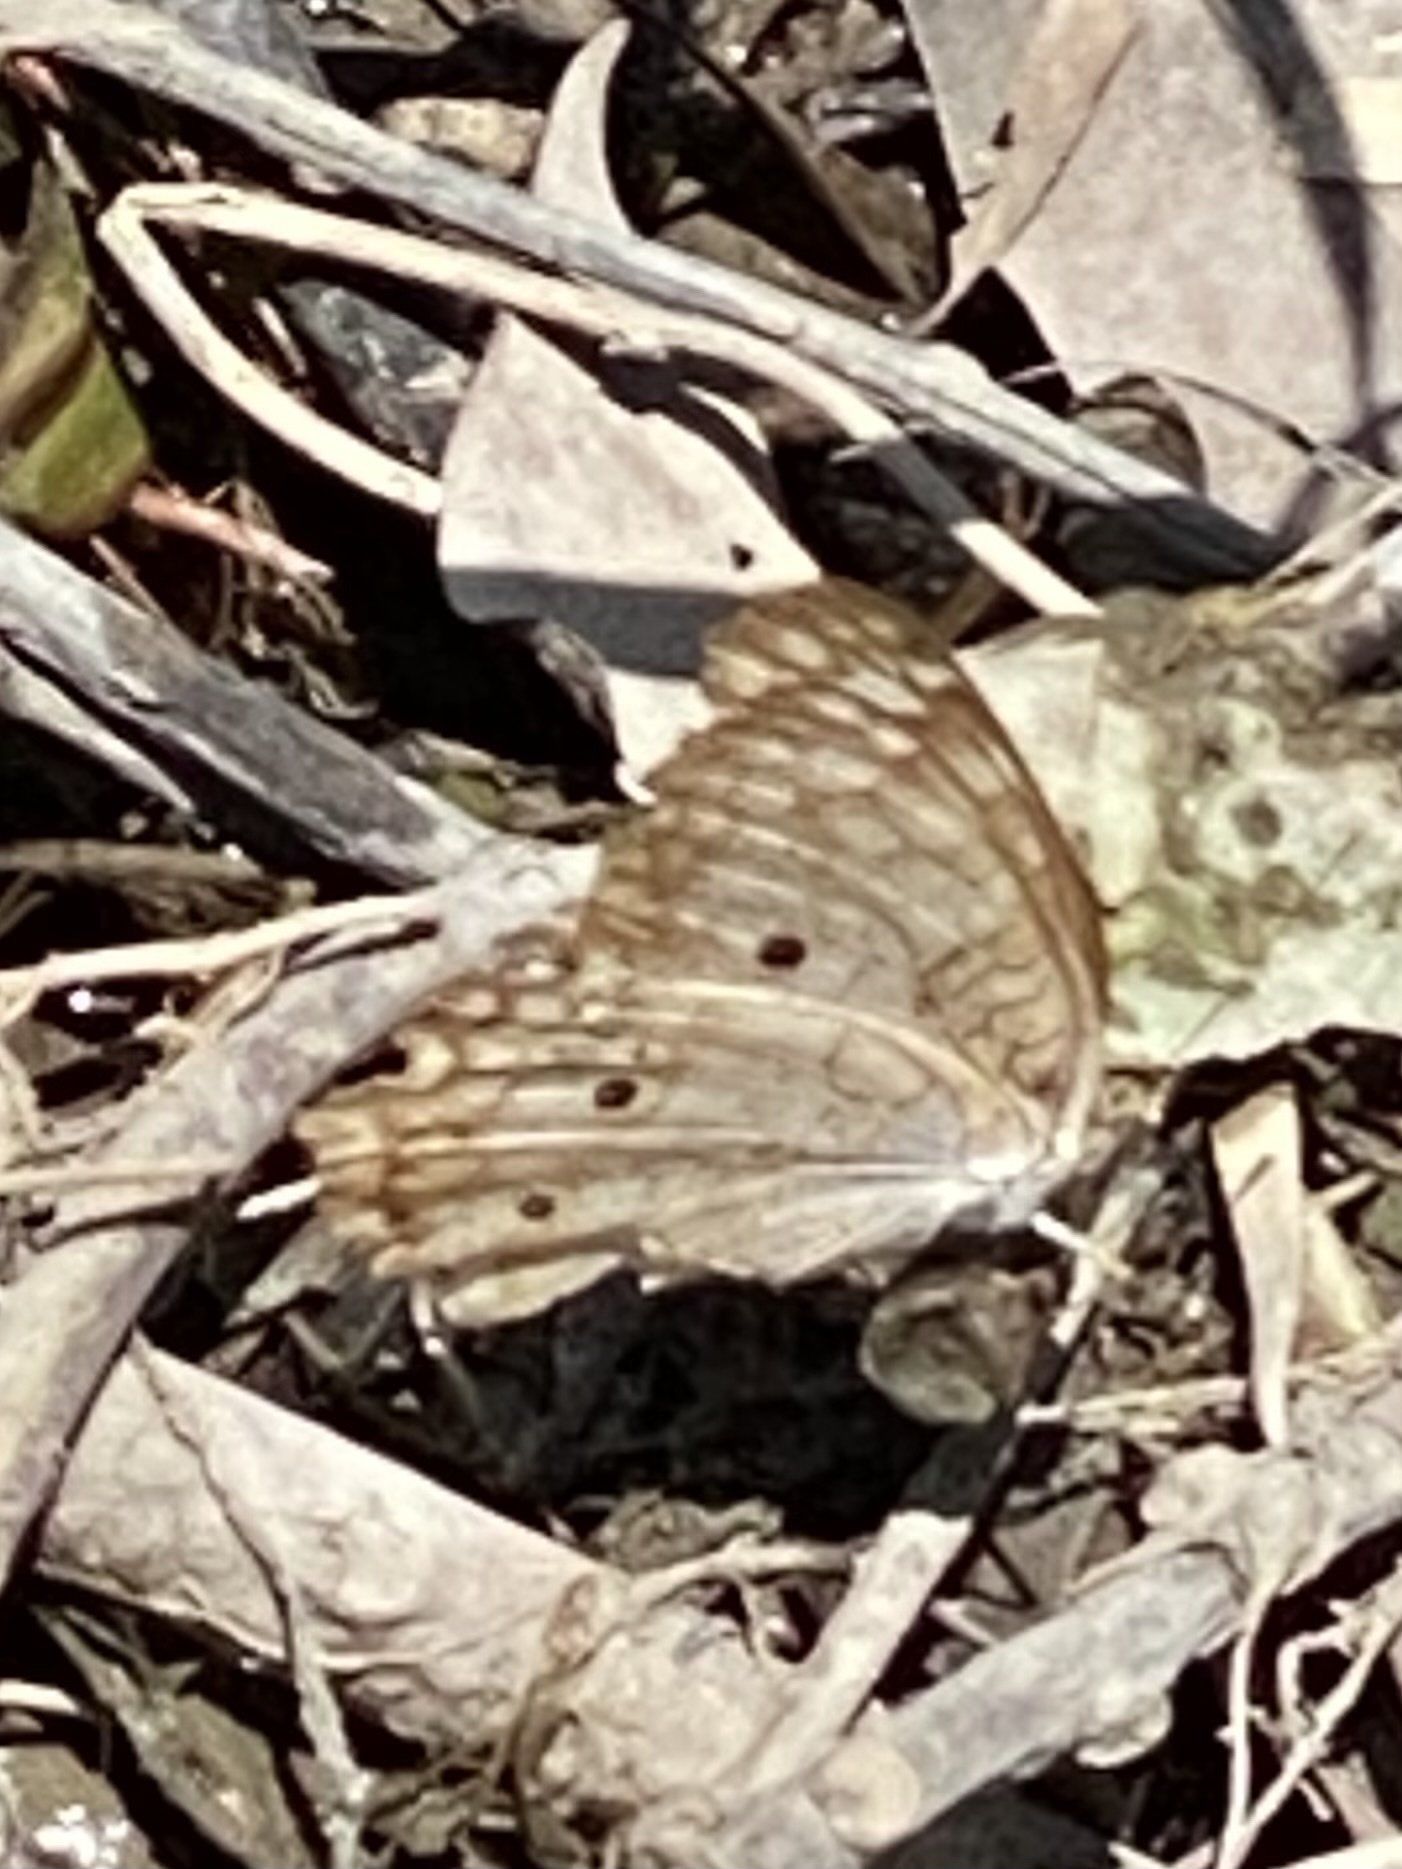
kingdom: Animalia
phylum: Arthropoda
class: Insecta
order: Lepidoptera
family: Nymphalidae
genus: Anartia
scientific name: Anartia jatrophae
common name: White peacock
